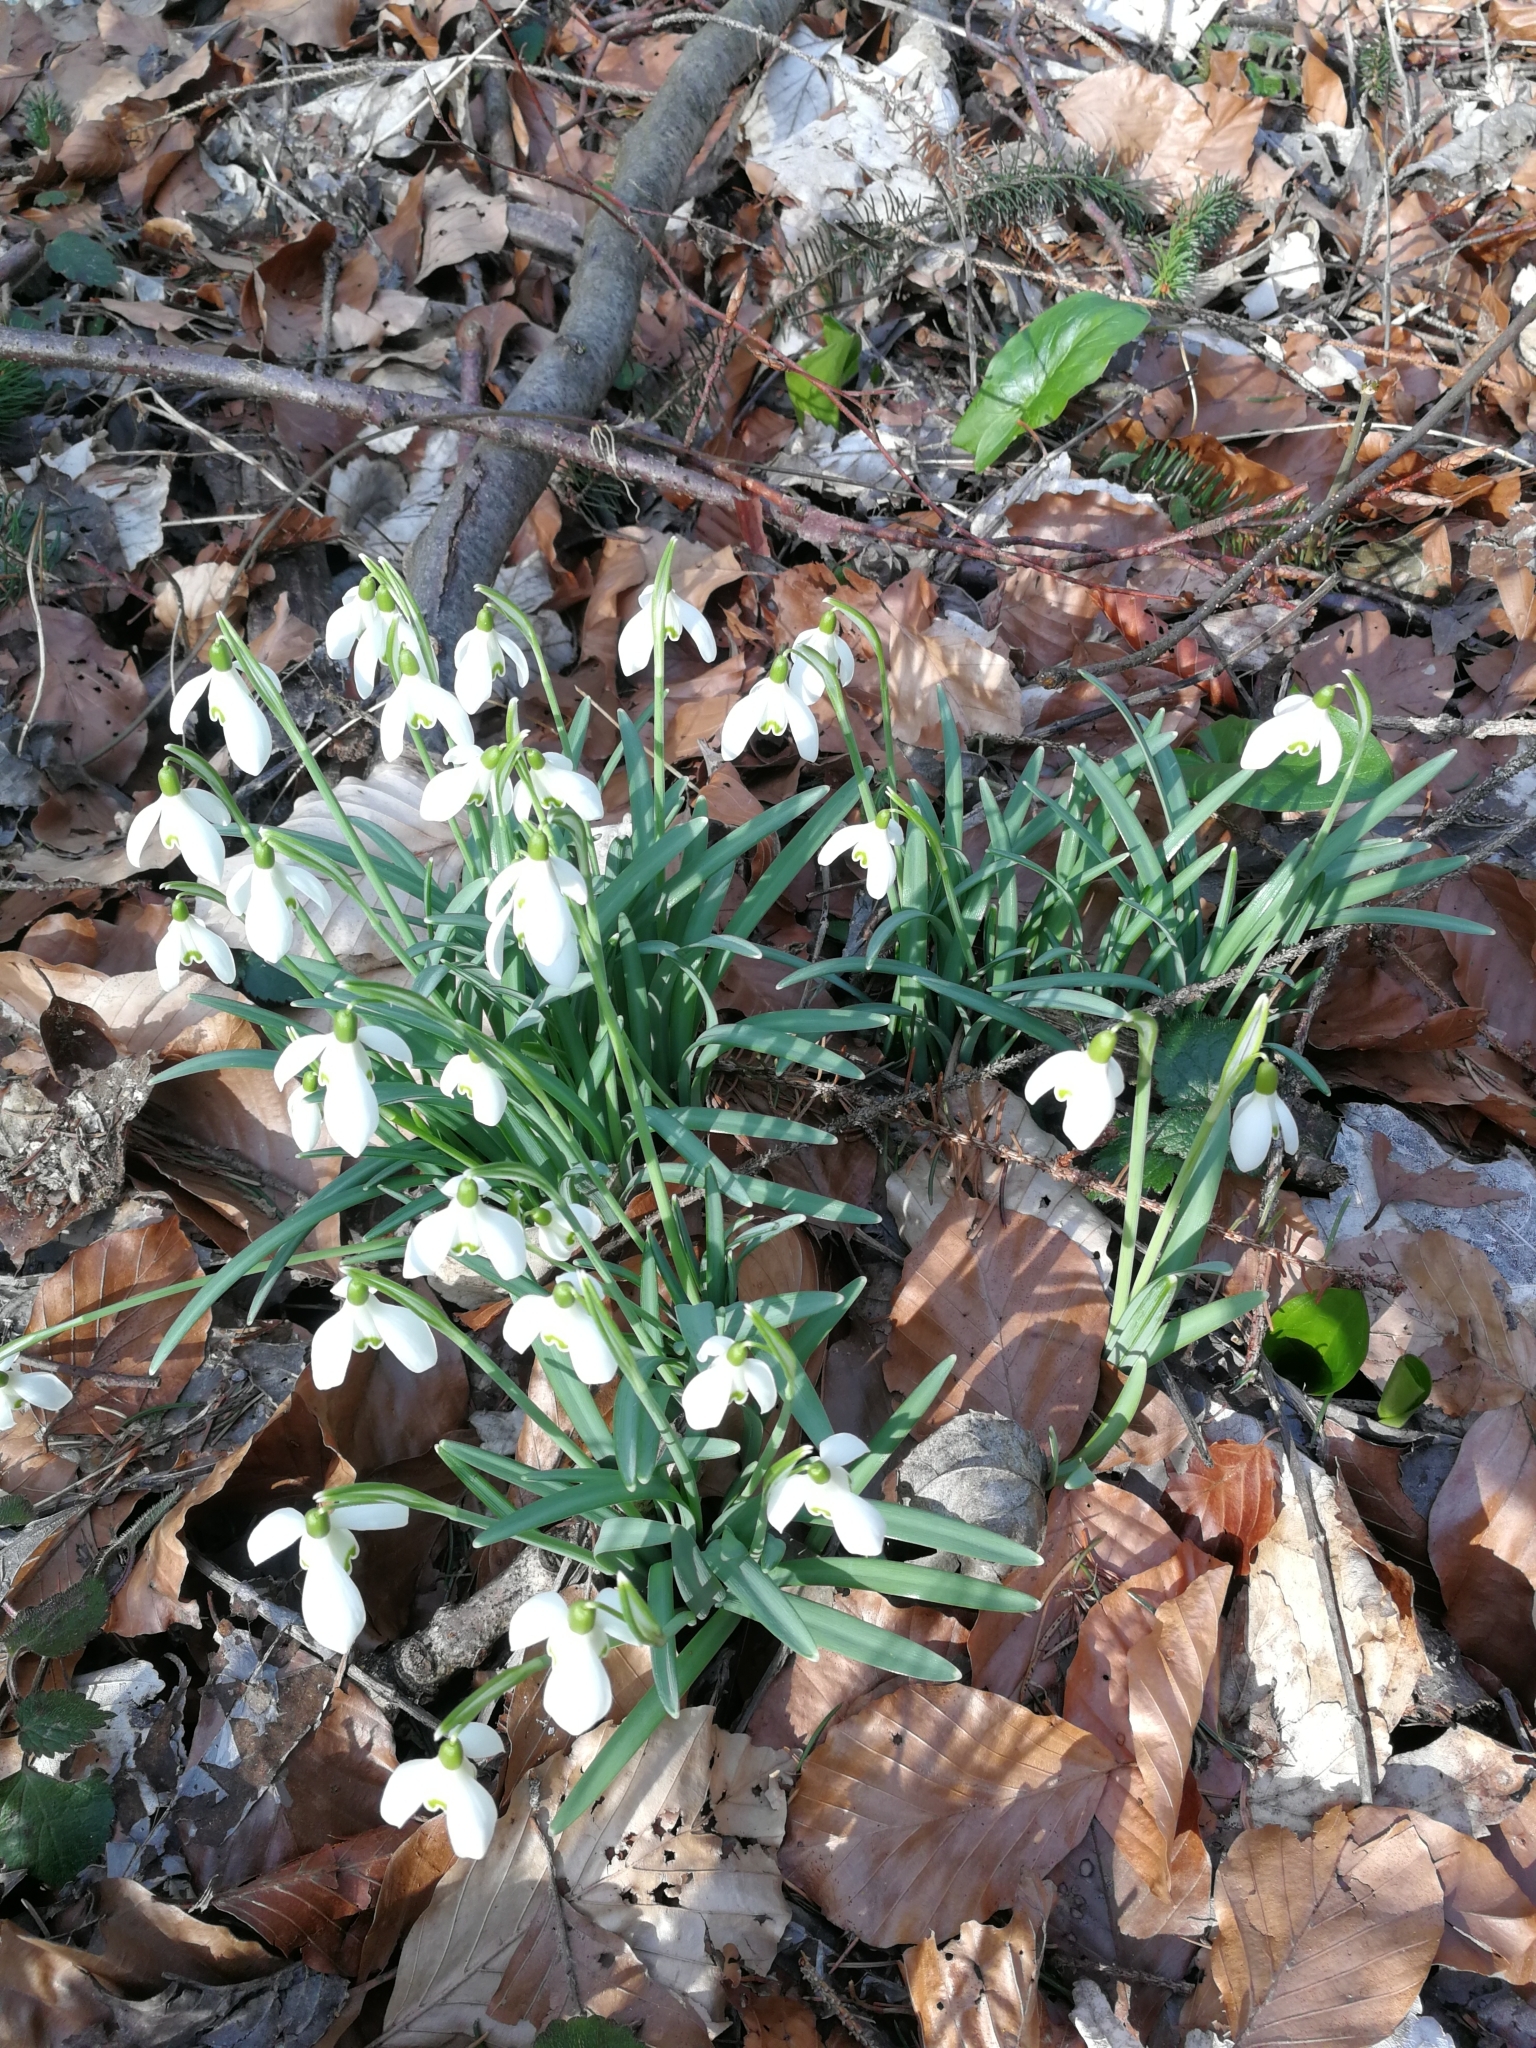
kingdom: Plantae
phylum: Tracheophyta
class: Liliopsida
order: Asparagales
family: Amaryllidaceae
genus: Galanthus
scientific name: Galanthus nivalis
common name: Snowdrop
